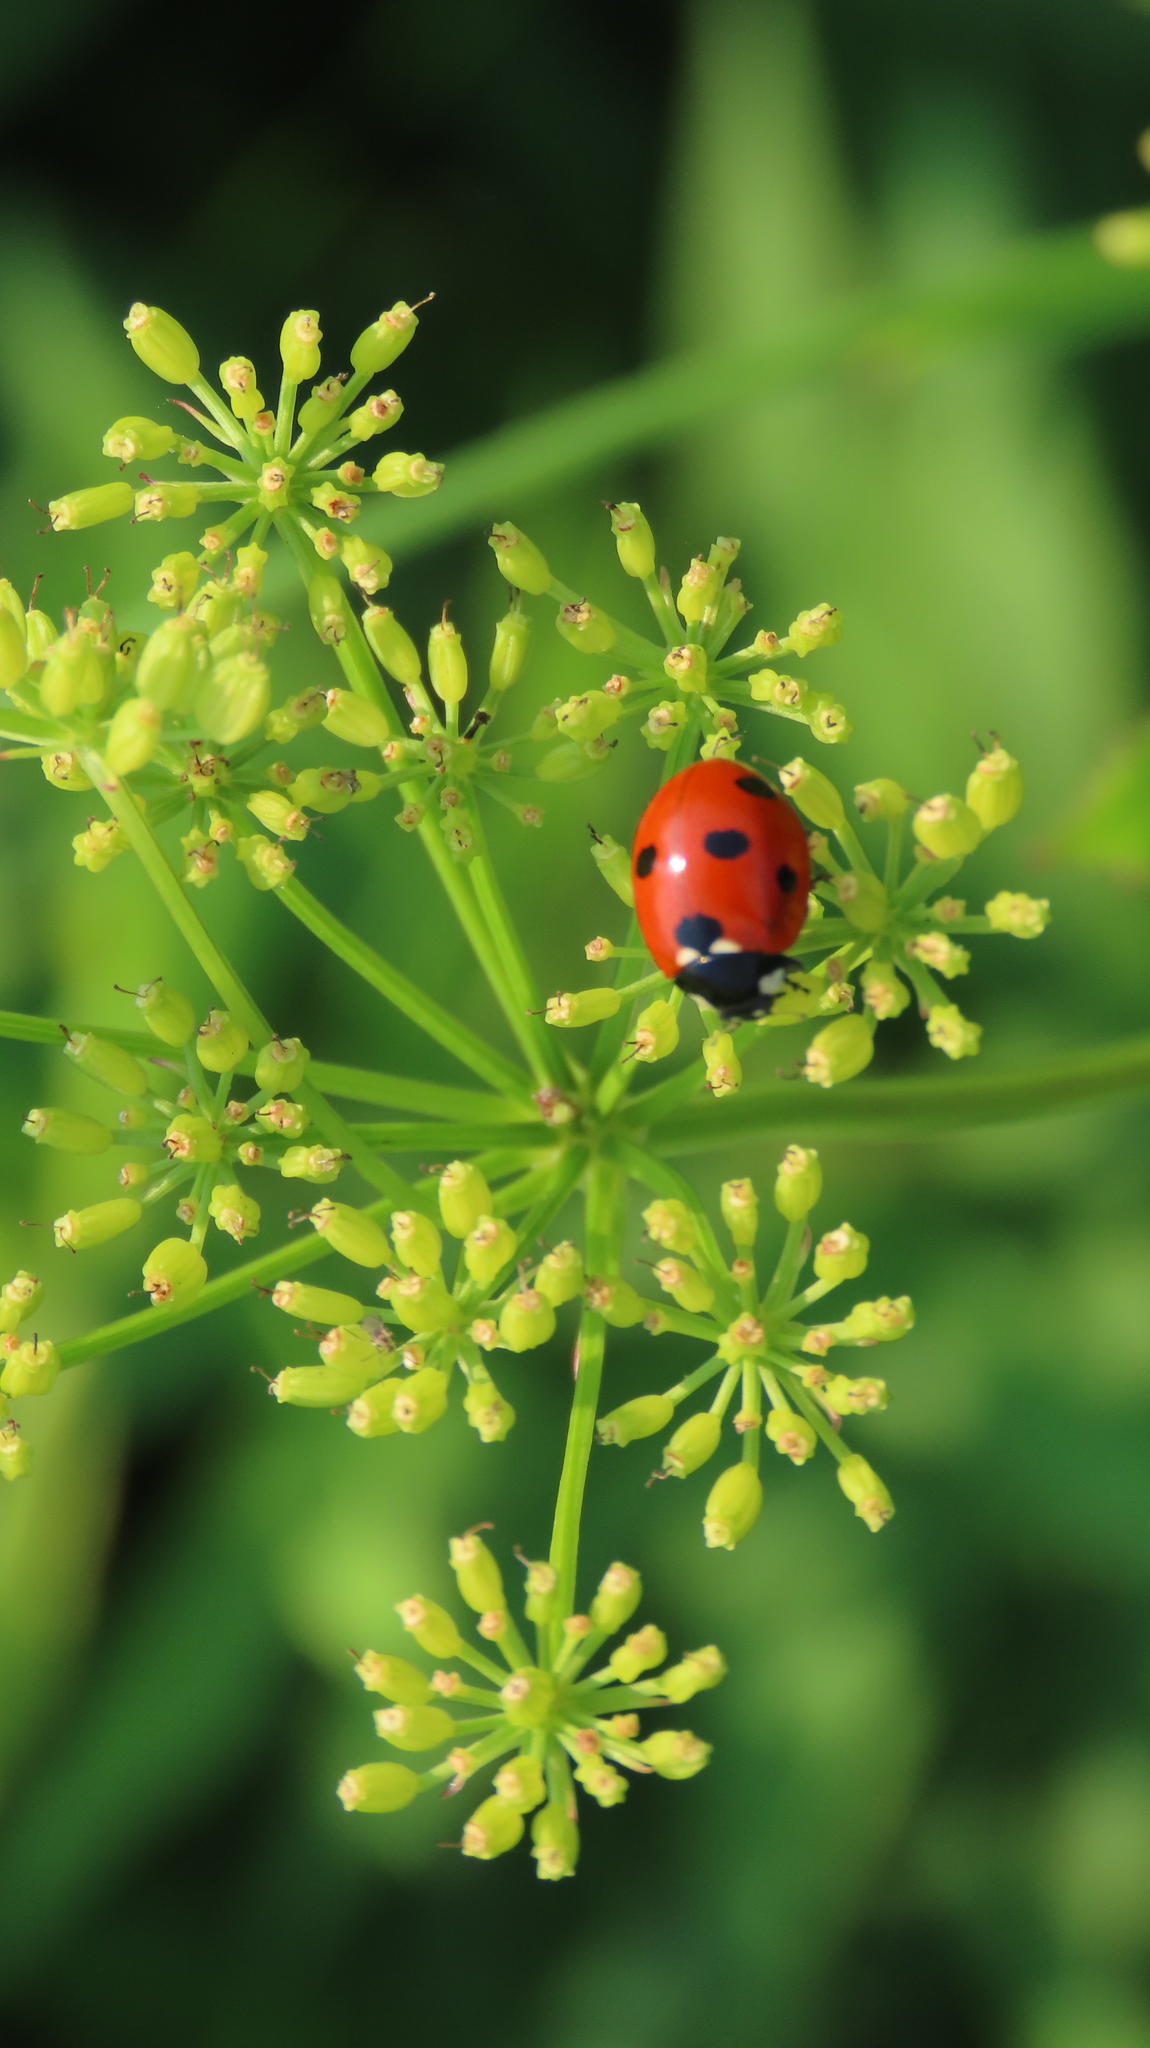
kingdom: Animalia
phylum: Arthropoda
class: Insecta
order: Coleoptera
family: Coccinellidae
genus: Coccinella
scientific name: Coccinella septempunctata
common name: Sevenspotted lady beetle
